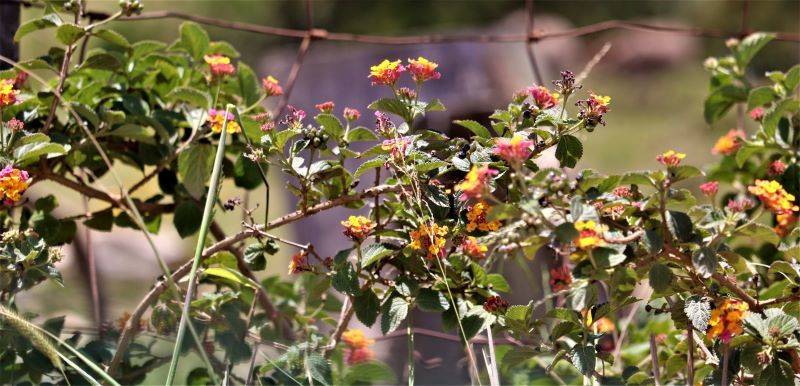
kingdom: Plantae
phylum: Tracheophyta
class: Magnoliopsida
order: Lamiales
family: Verbenaceae
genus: Lantana
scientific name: Lantana camara
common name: Lantana
